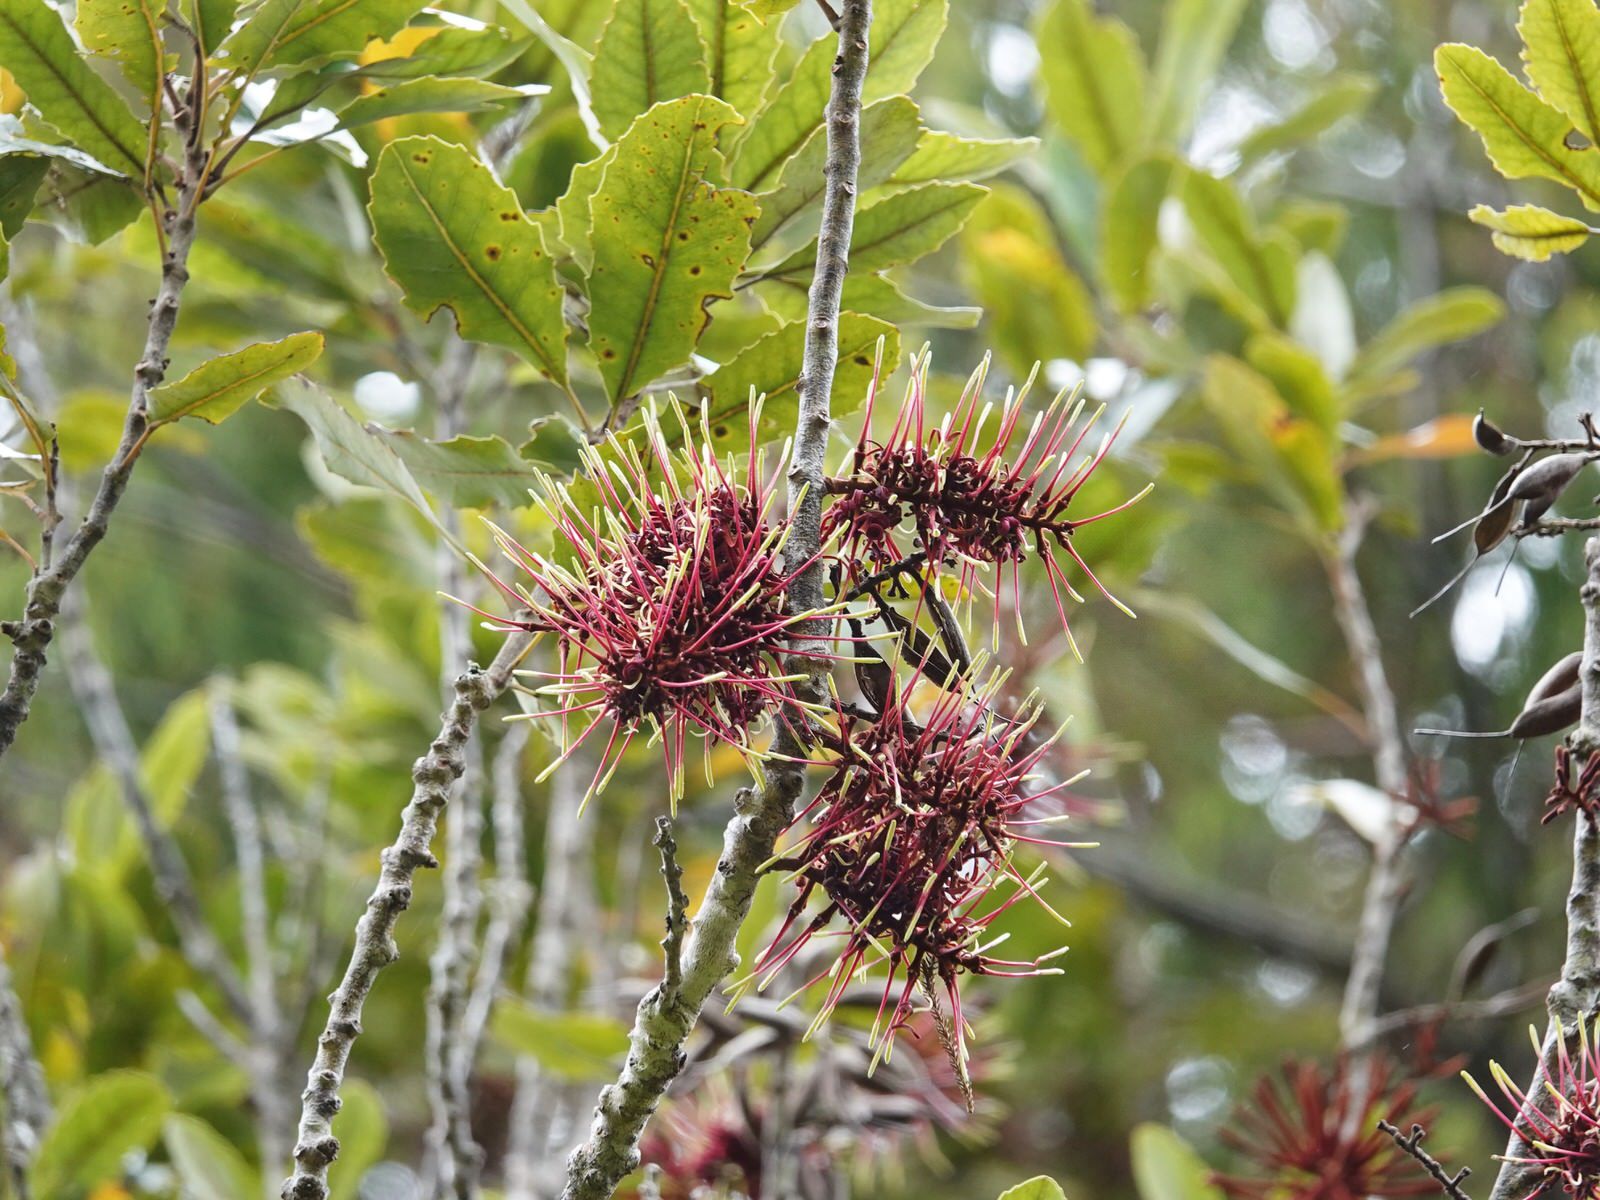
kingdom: Plantae
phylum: Tracheophyta
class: Magnoliopsida
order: Proteales
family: Proteaceae
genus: Knightia
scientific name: Knightia excelsa
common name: New zealand-honeysuckle
